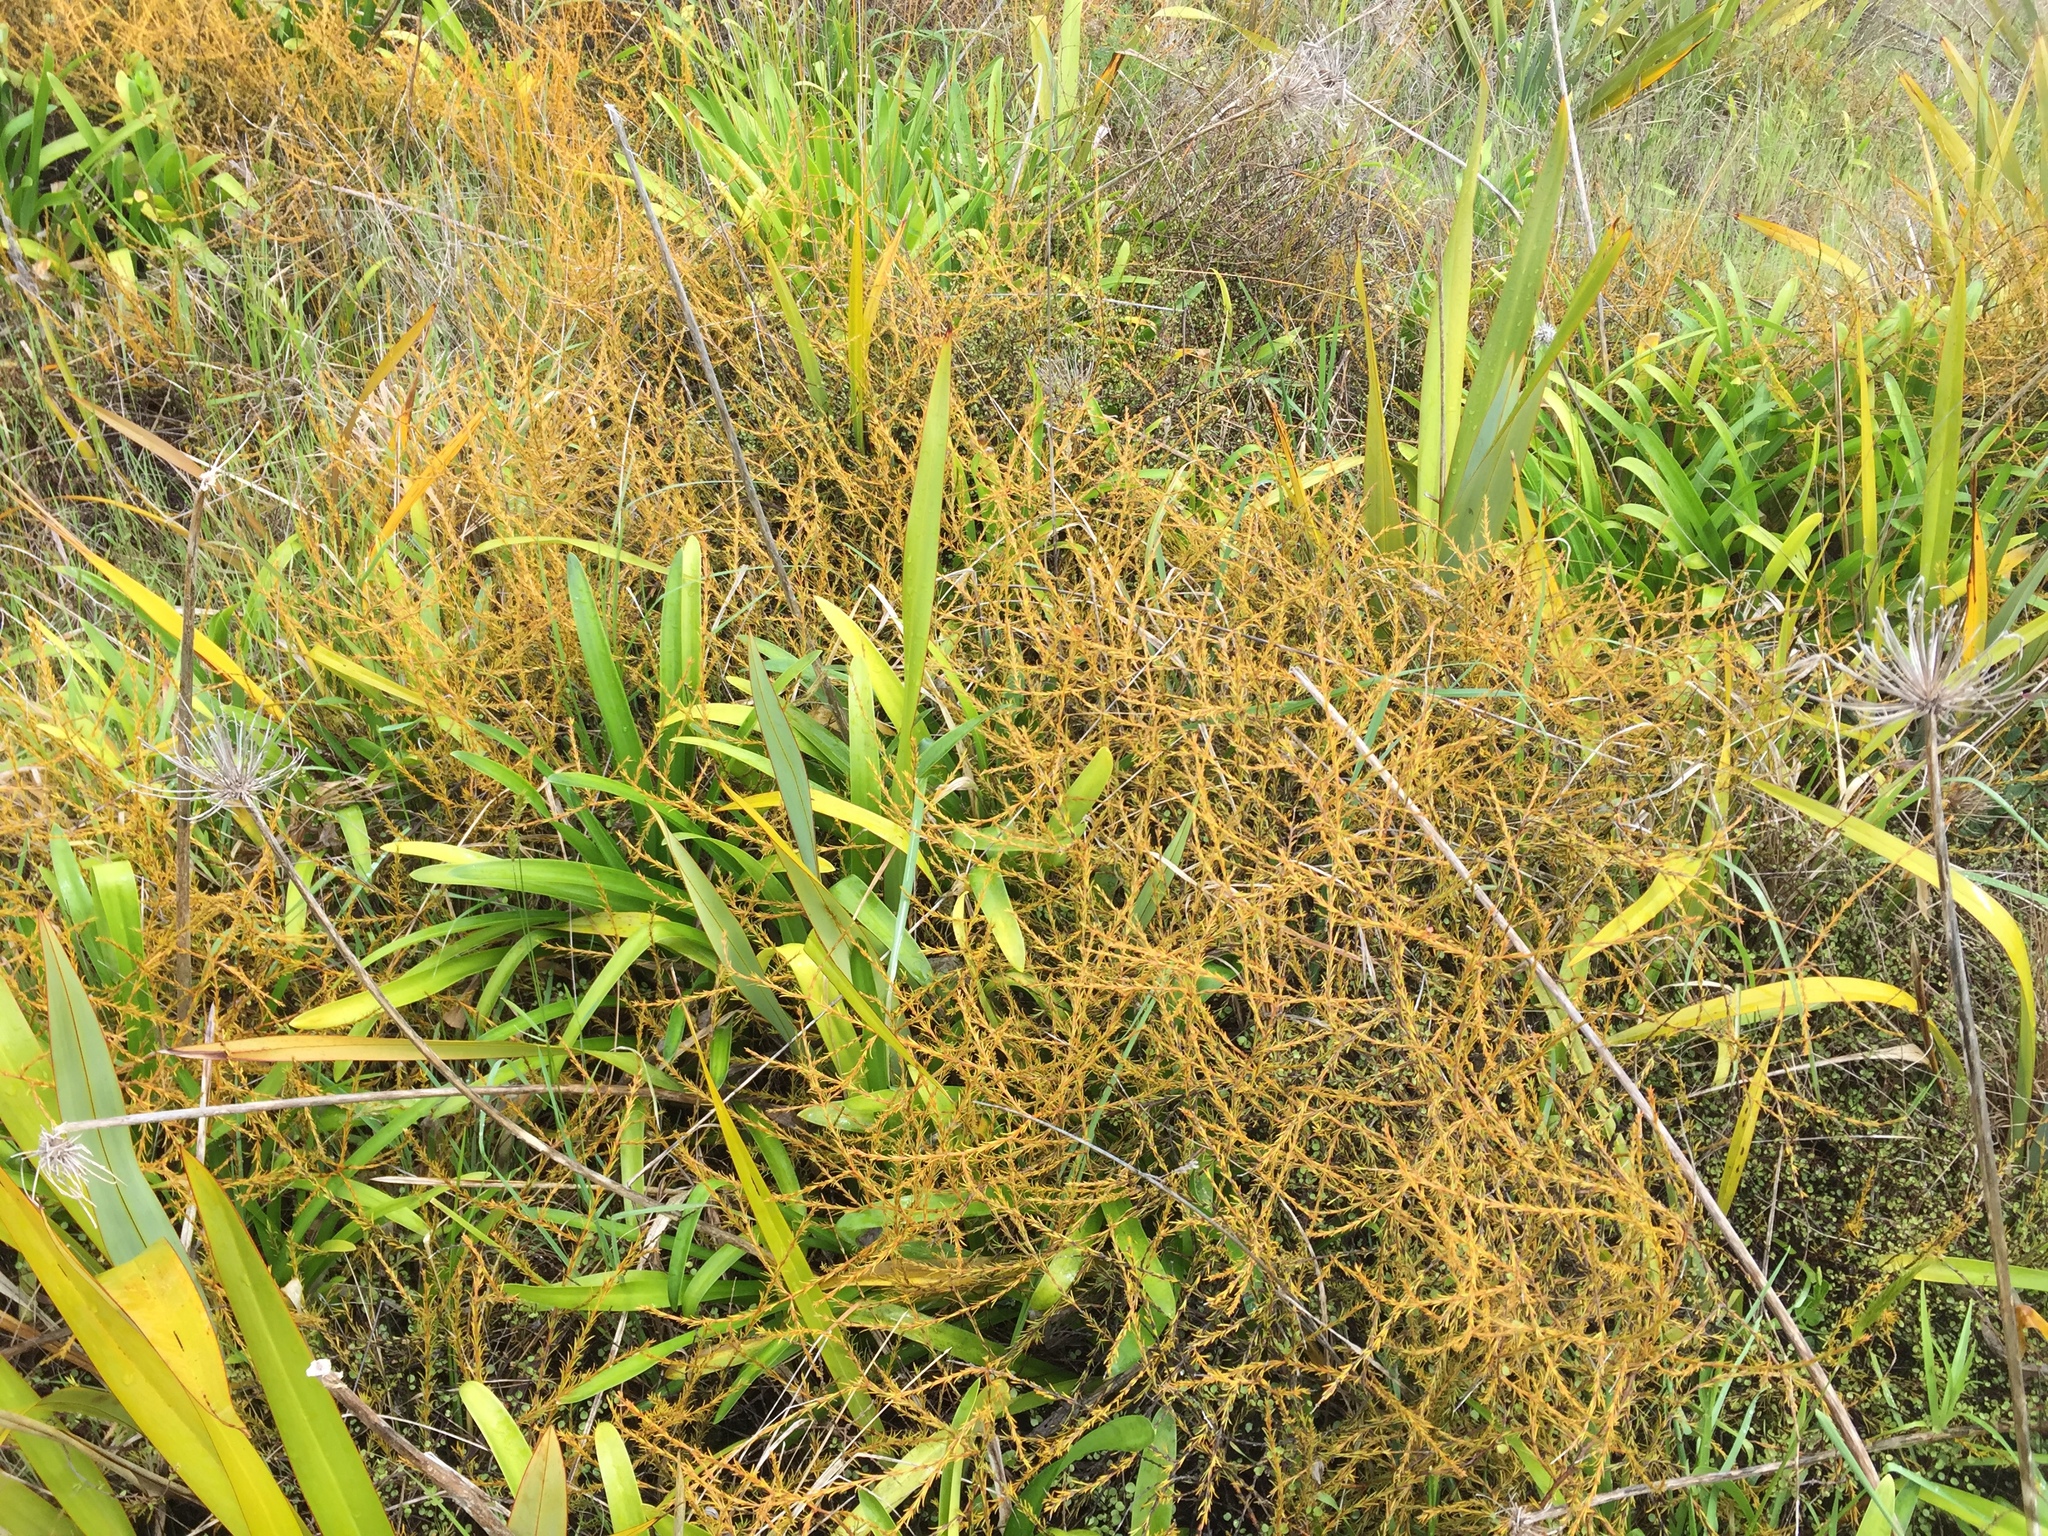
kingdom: Plantae
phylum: Tracheophyta
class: Magnoliopsida
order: Gentianales
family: Rubiaceae
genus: Coprosma
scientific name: Coprosma acerosa
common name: Sand coprosma
